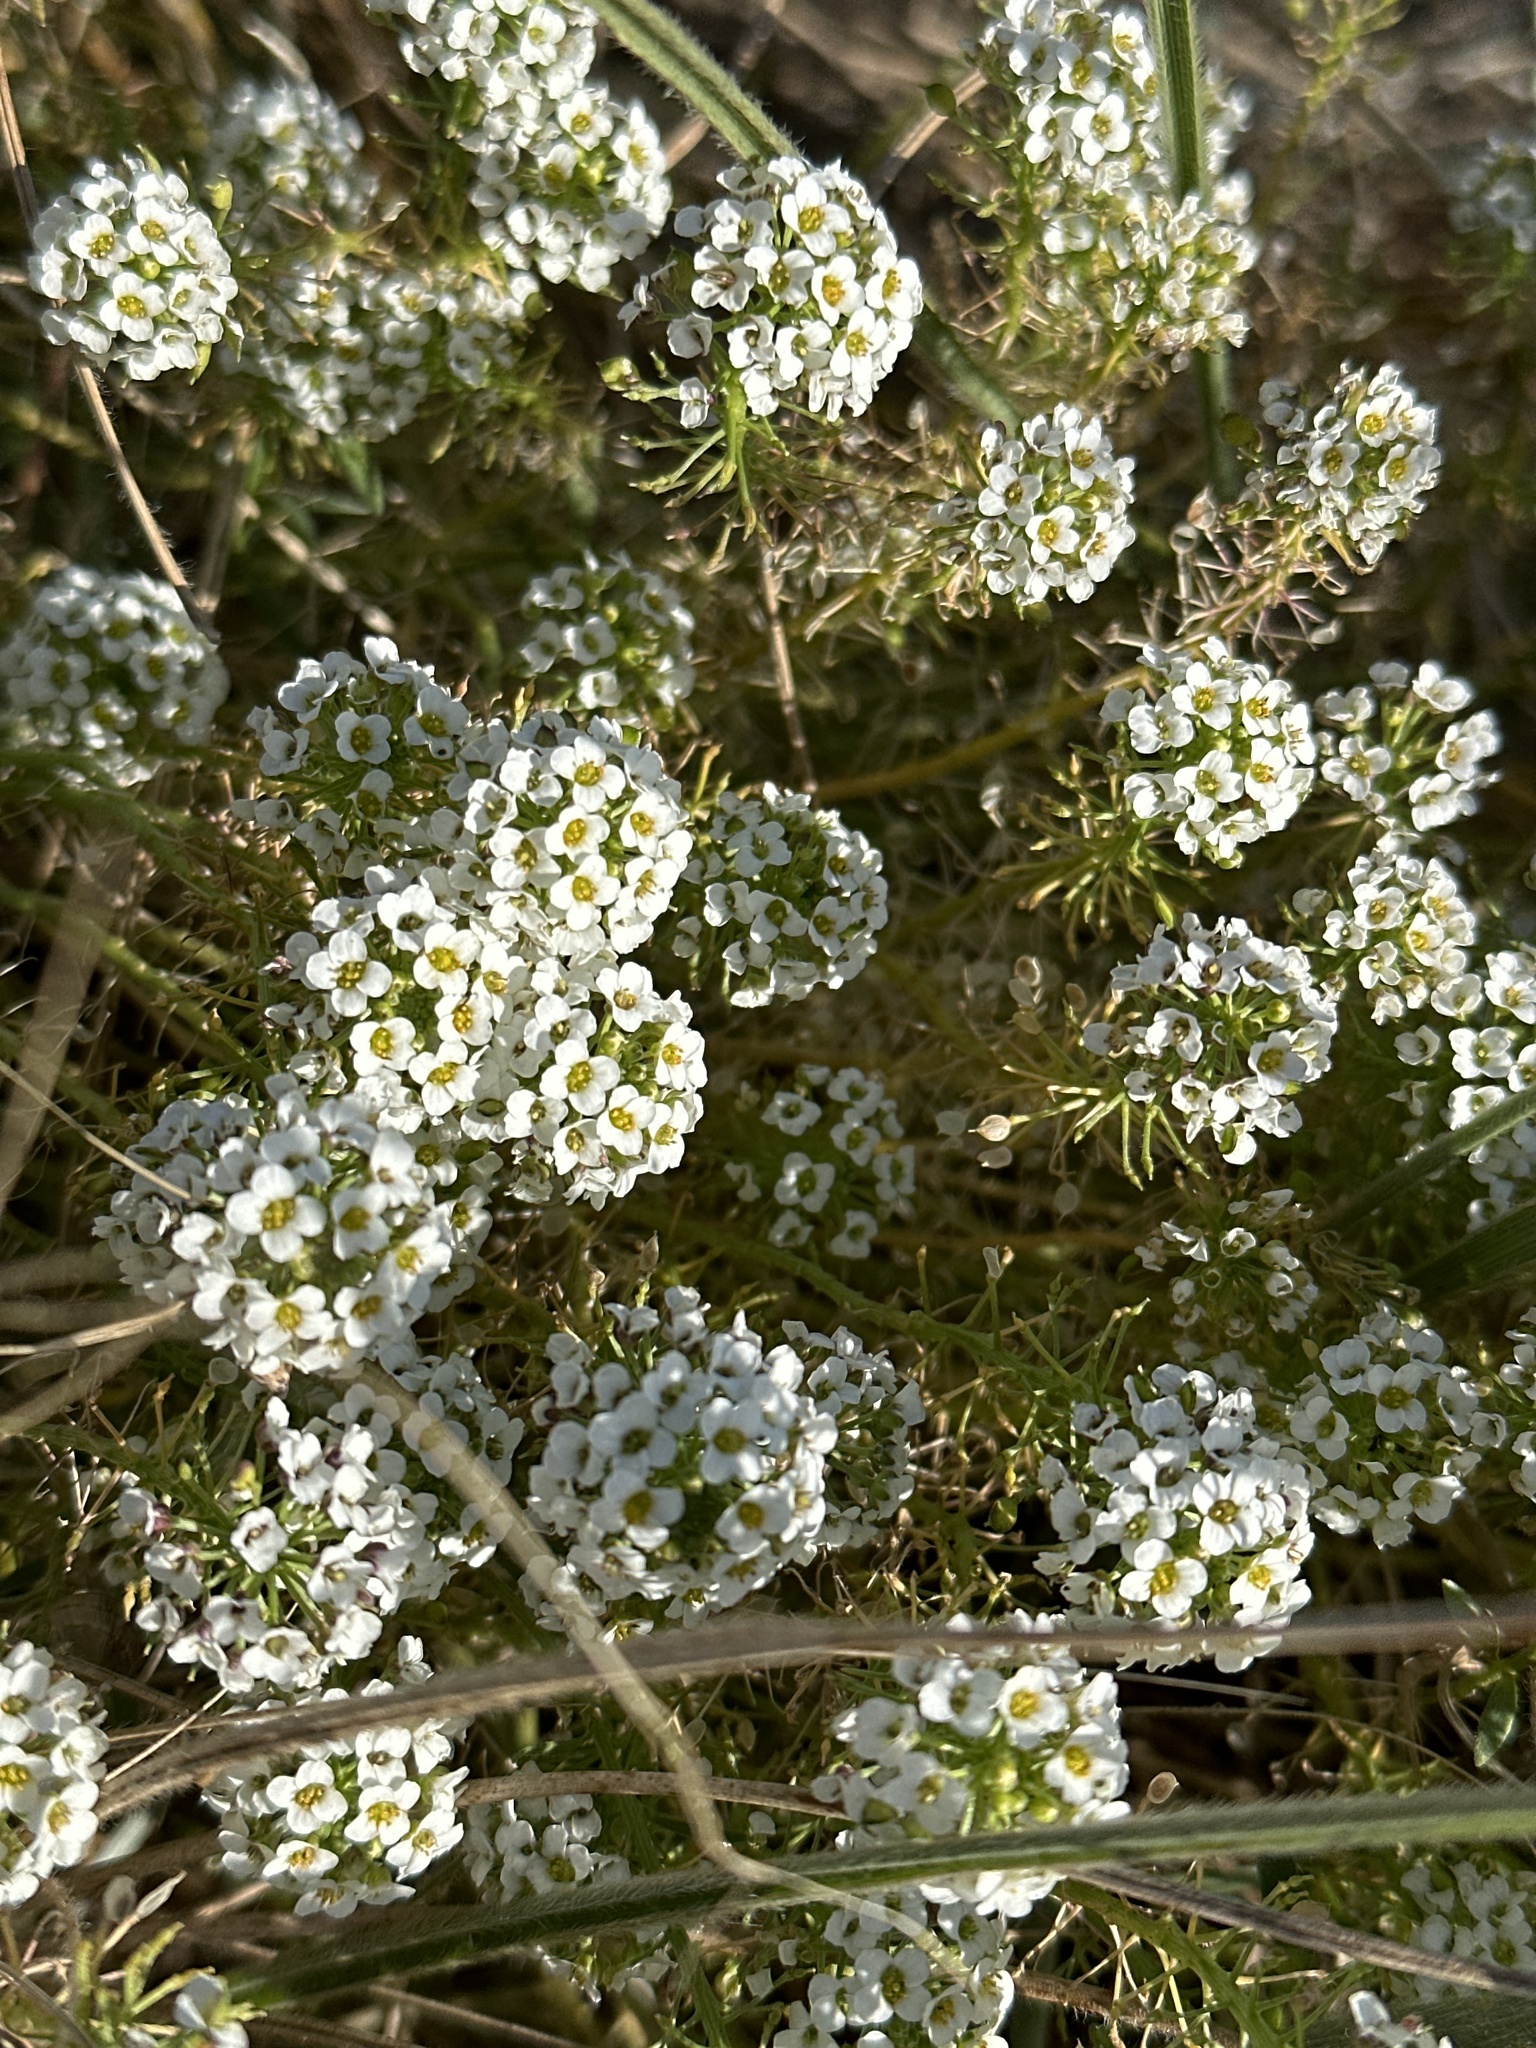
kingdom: Plantae
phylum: Tracheophyta
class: Magnoliopsida
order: Brassicales
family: Brassicaceae
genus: Lobularia
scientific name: Lobularia maritima
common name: Sweet alison
